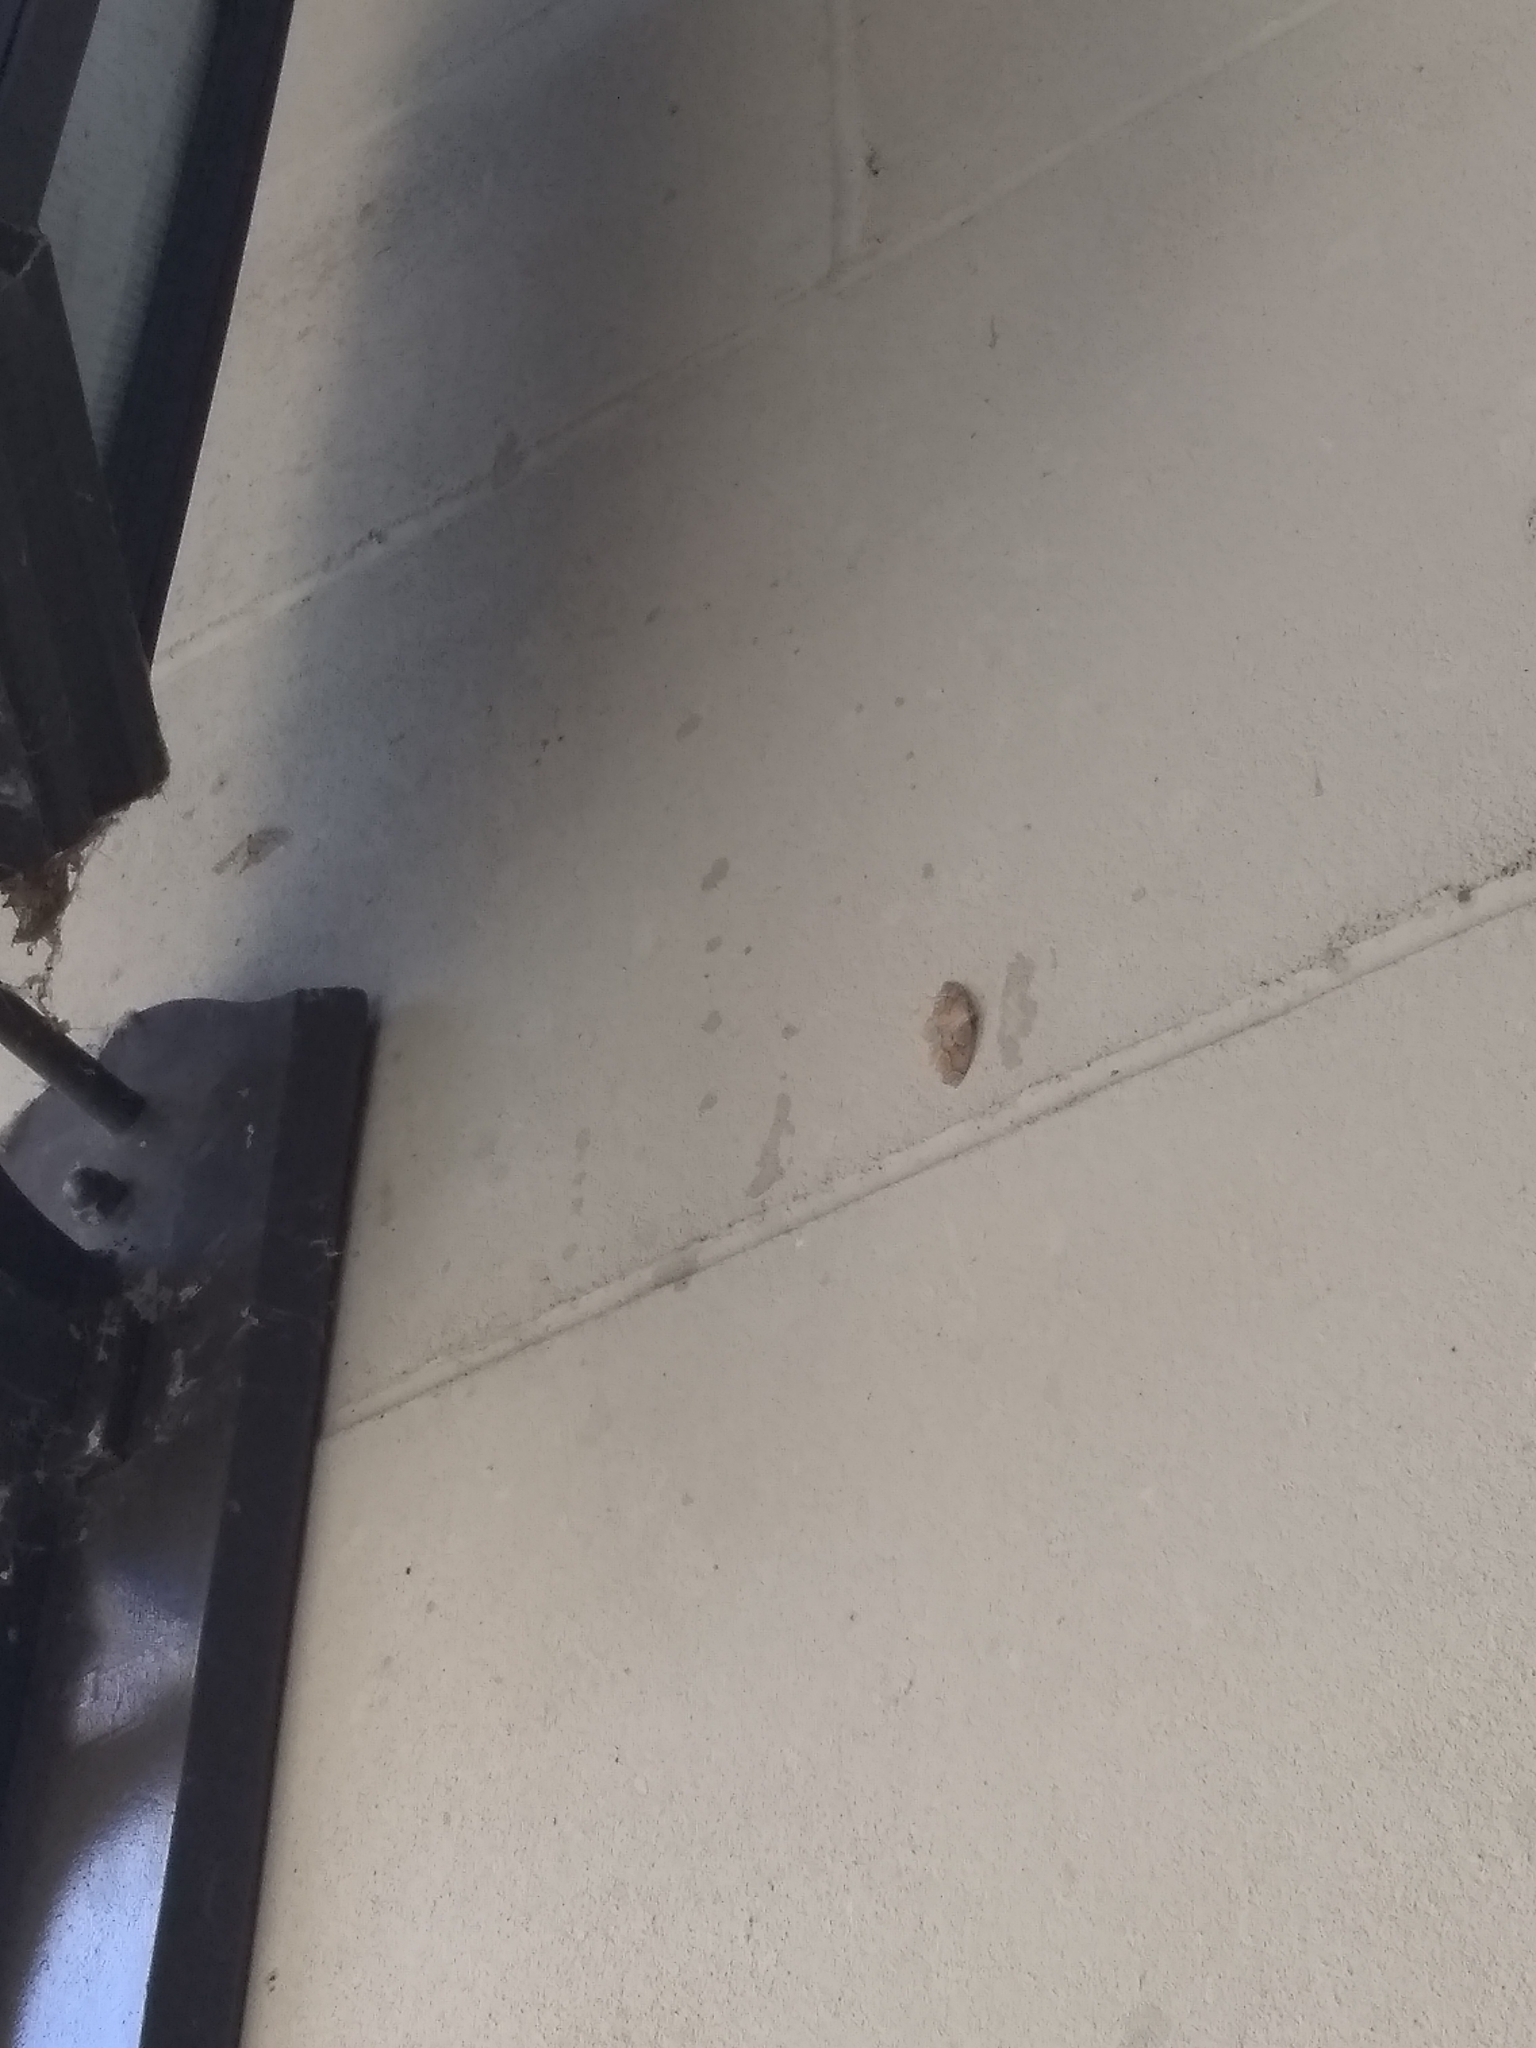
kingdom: Animalia
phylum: Arthropoda
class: Insecta
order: Lepidoptera
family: Geometridae
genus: Lambdina
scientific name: Lambdina fiscellaria
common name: Hemlock looper
